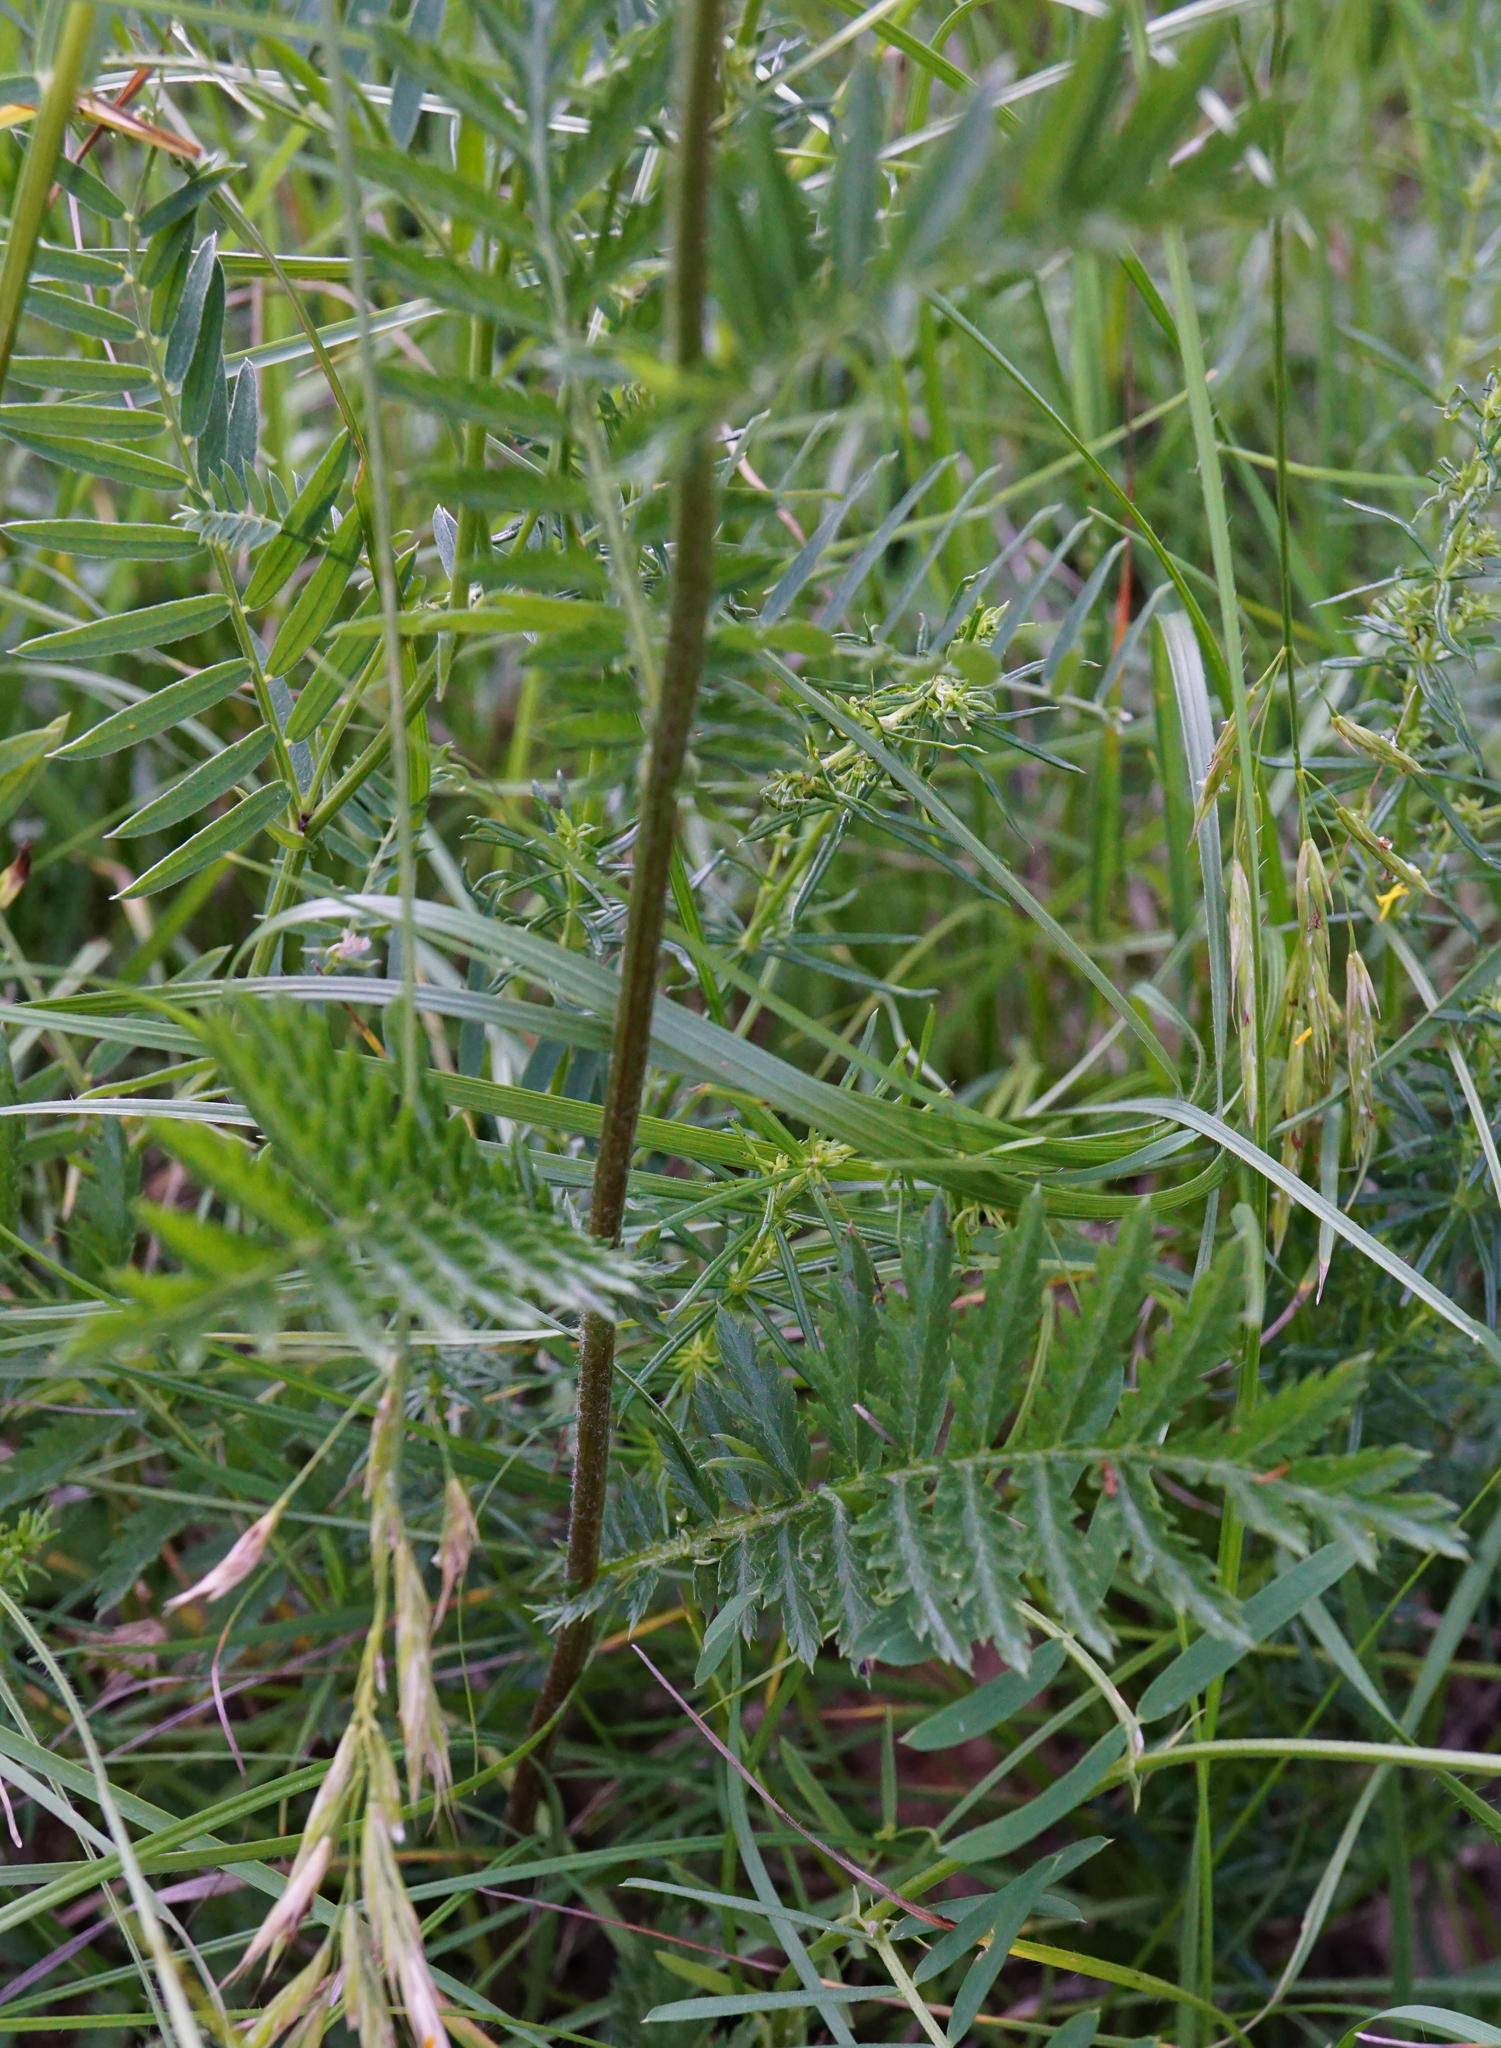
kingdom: Plantae
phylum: Tracheophyta
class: Magnoliopsida
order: Asterales
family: Asteraceae
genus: Tanacetum
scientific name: Tanacetum corymbosum
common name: Scentless feverfew
